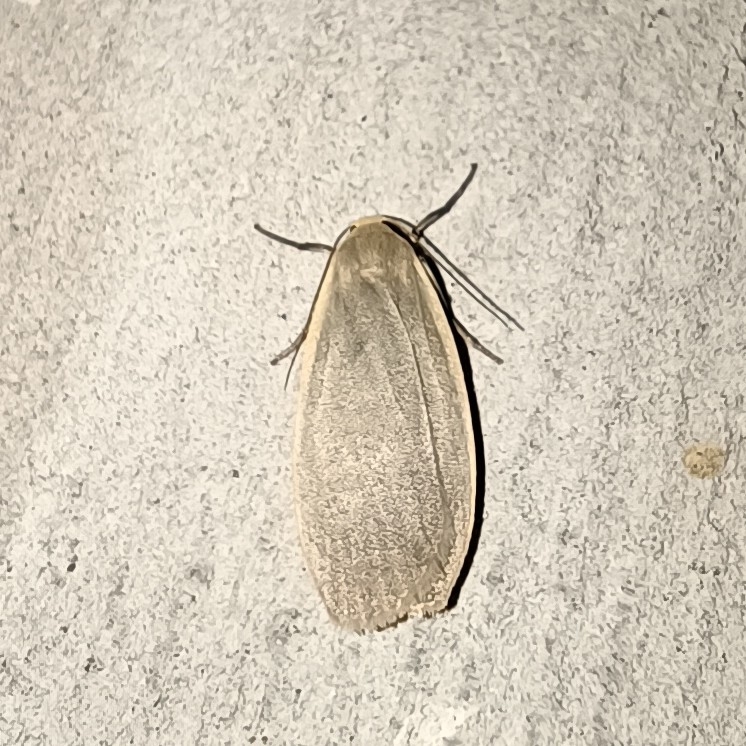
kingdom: Animalia
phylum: Arthropoda
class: Insecta
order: Lepidoptera
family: Erebidae
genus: Collita
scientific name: Collita griseola
